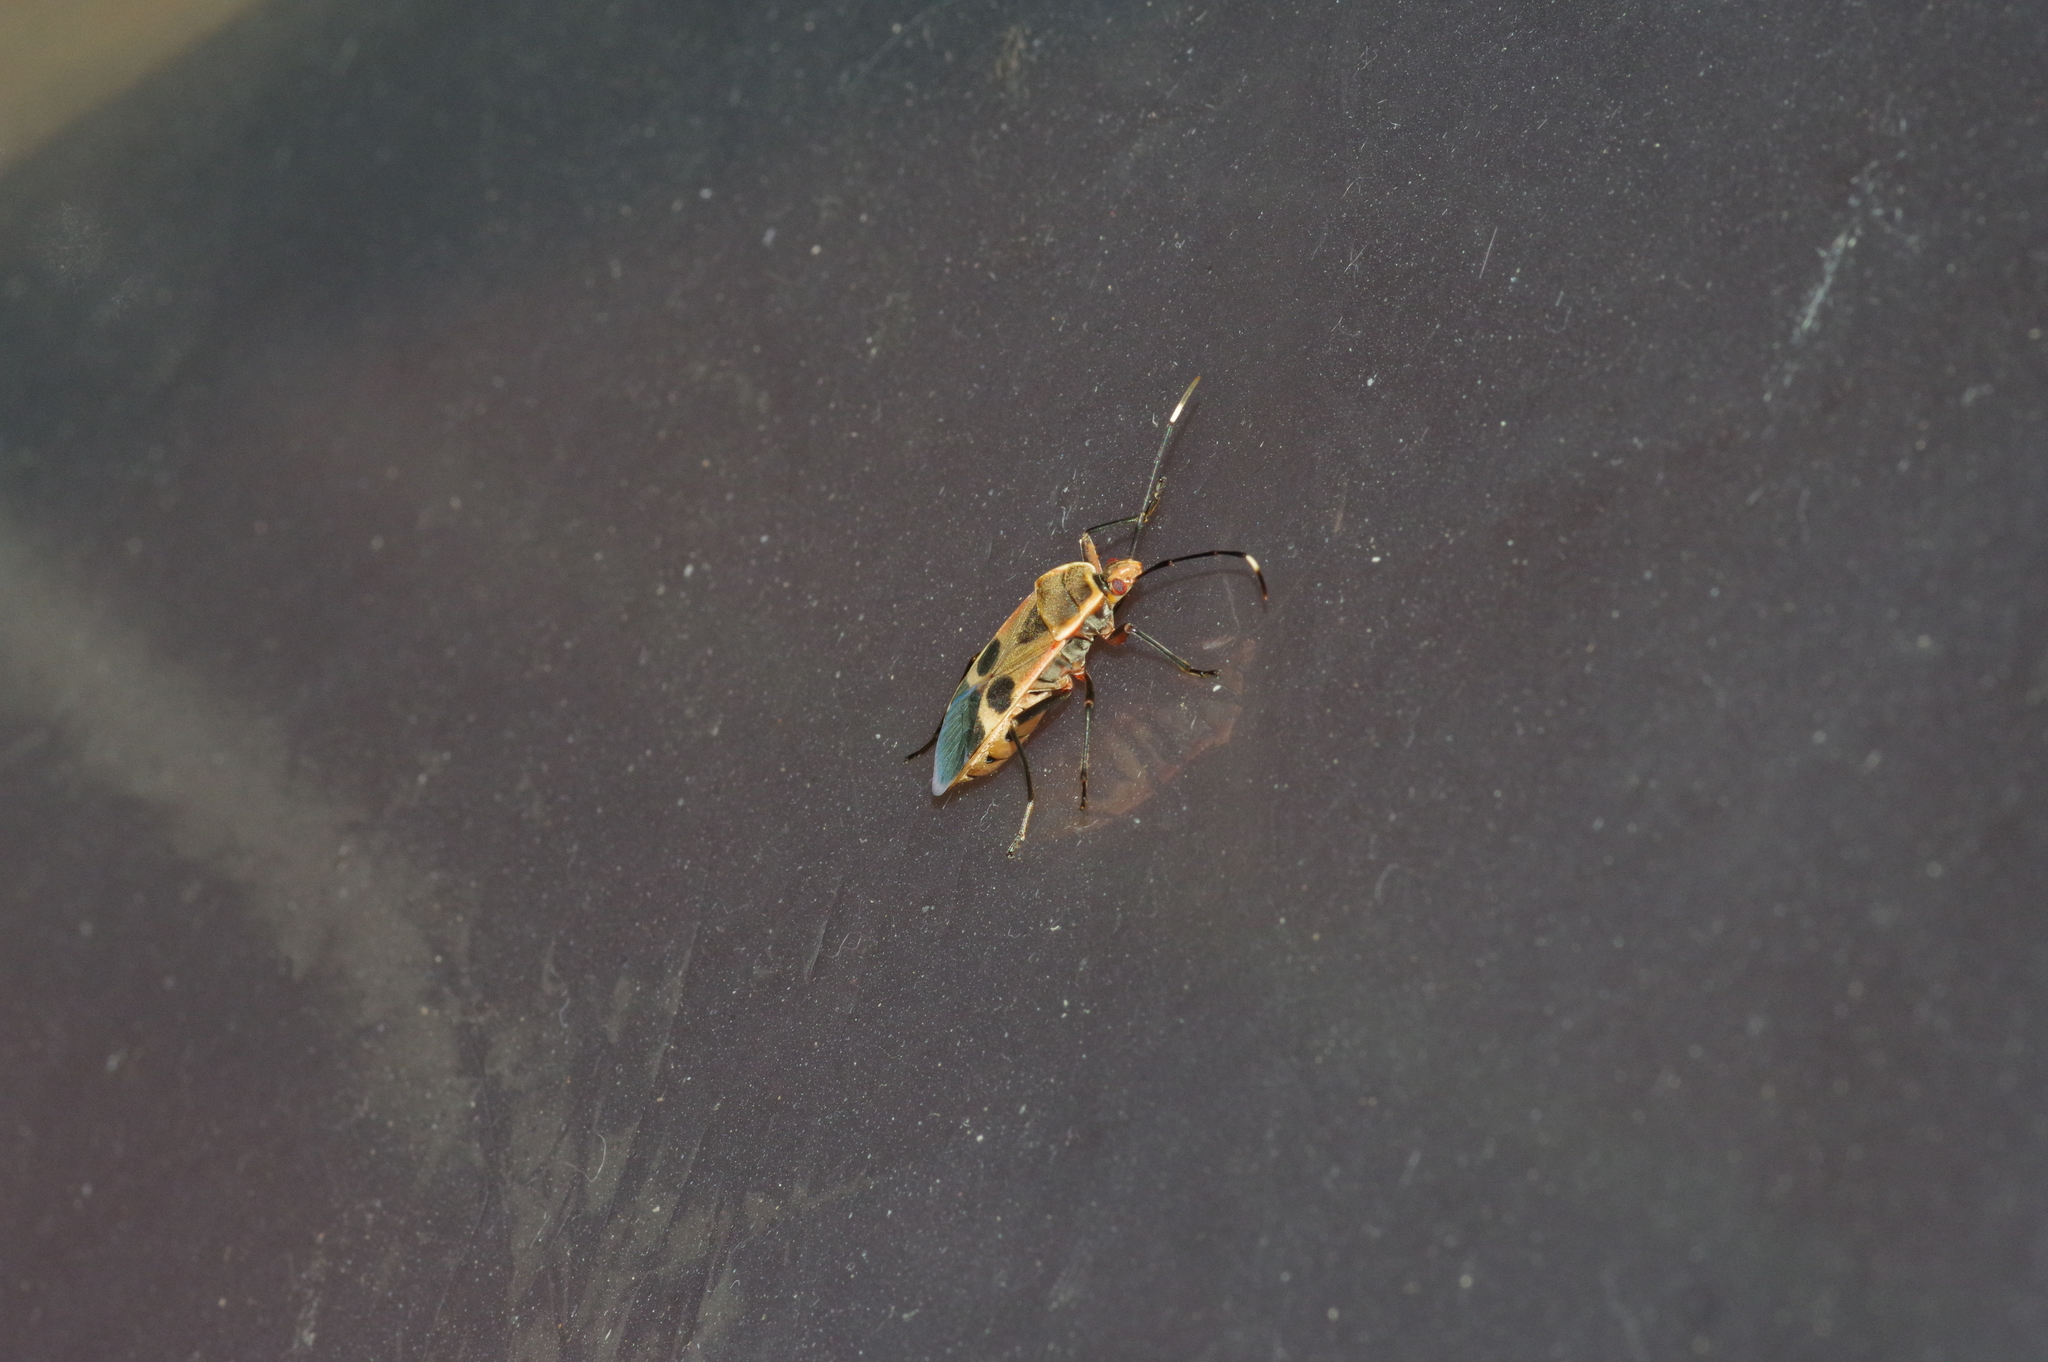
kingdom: Animalia
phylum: Arthropoda
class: Insecta
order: Hemiptera
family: Largidae
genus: Physopelta
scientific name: Physopelta gutta
